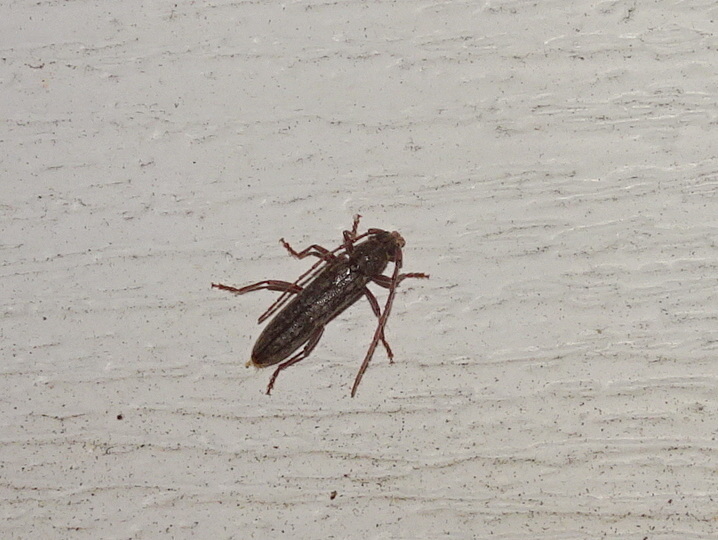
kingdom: Animalia
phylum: Arthropoda
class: Insecta
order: Coleoptera
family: Cerambycidae
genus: Anelaphus
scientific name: Anelaphus villosus
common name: Twig pruner
